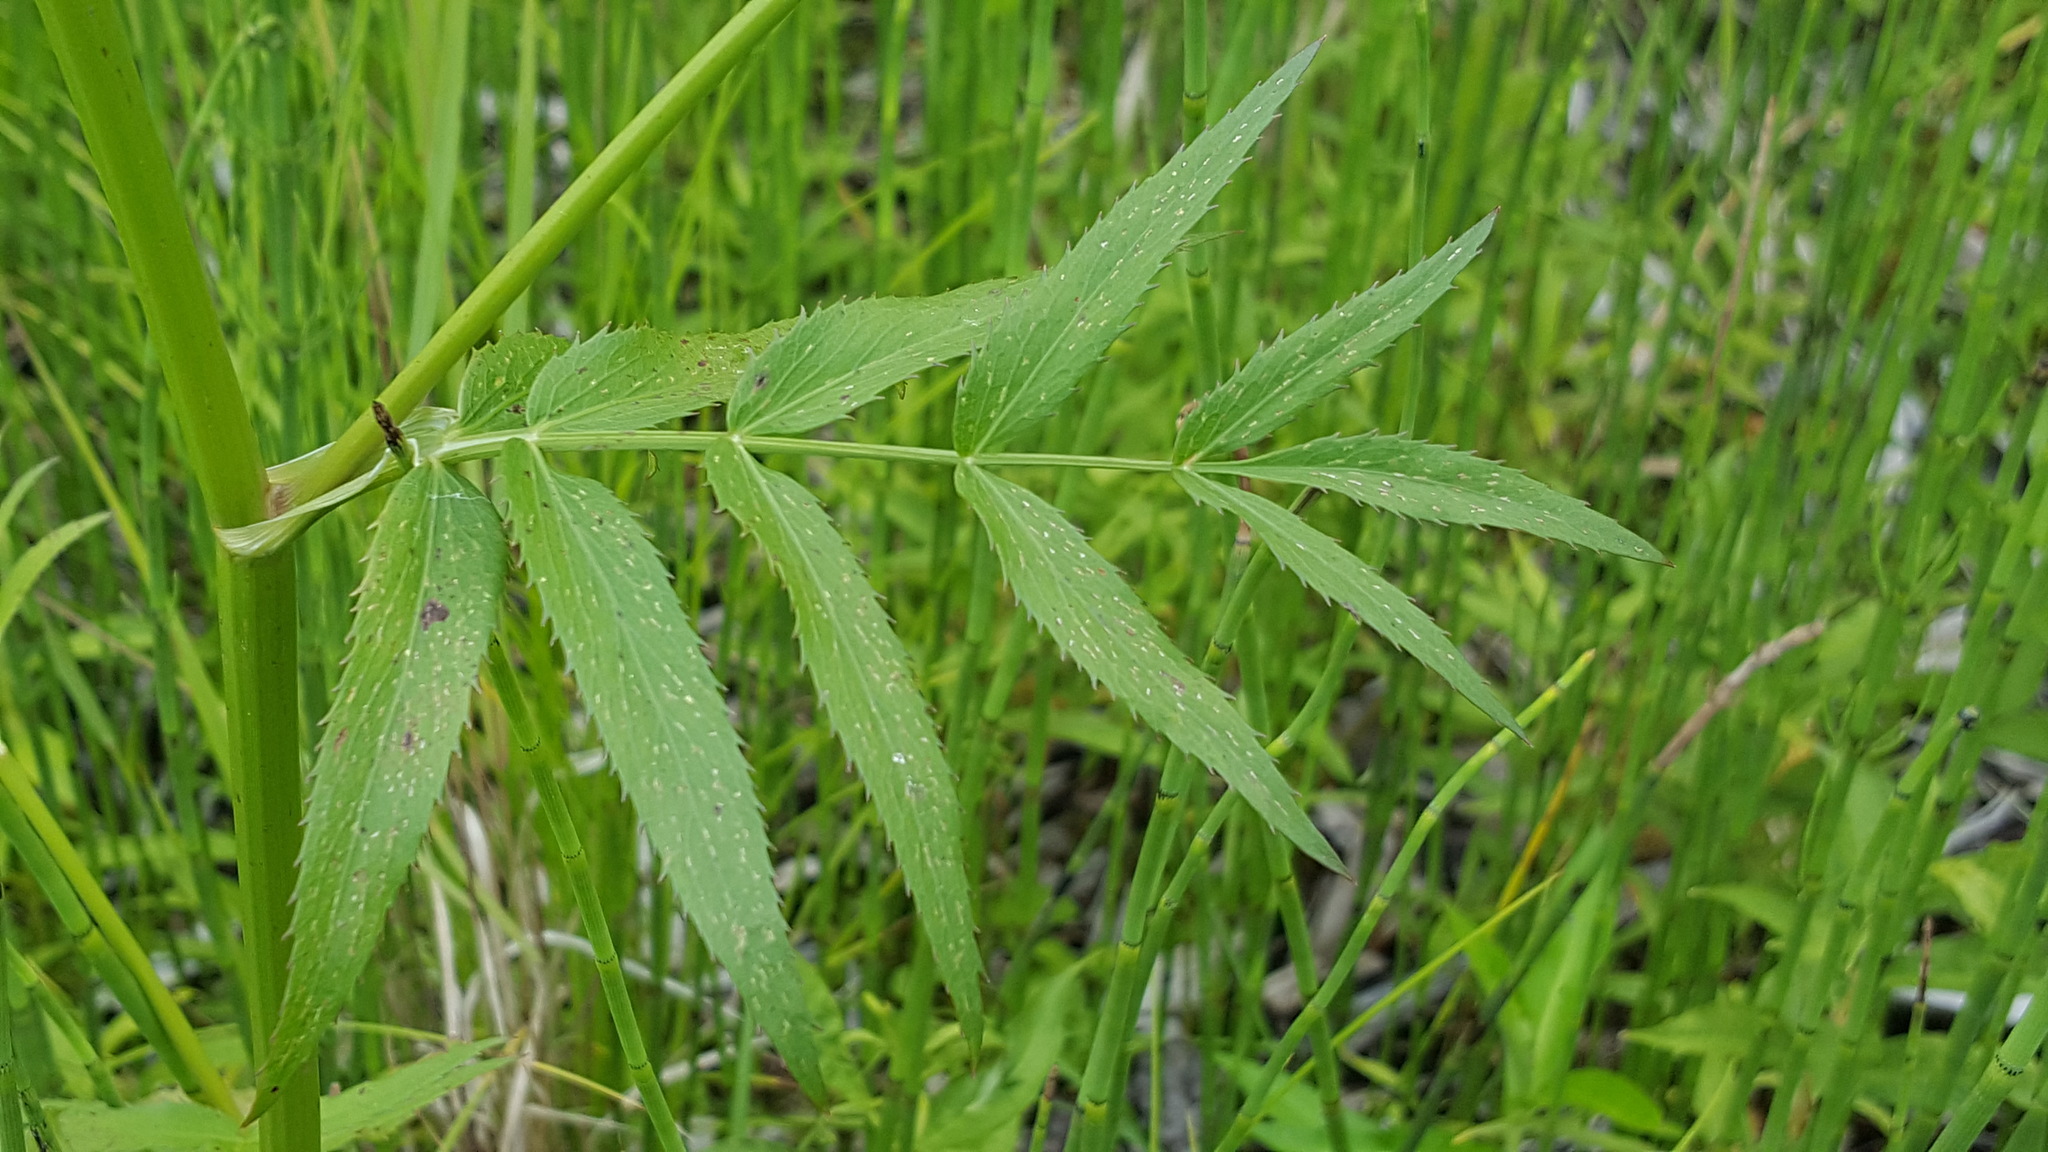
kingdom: Plantae
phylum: Tracheophyta
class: Magnoliopsida
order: Apiales
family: Apiaceae
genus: Sium
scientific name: Sium suave
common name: Hemlock water-parsnip
